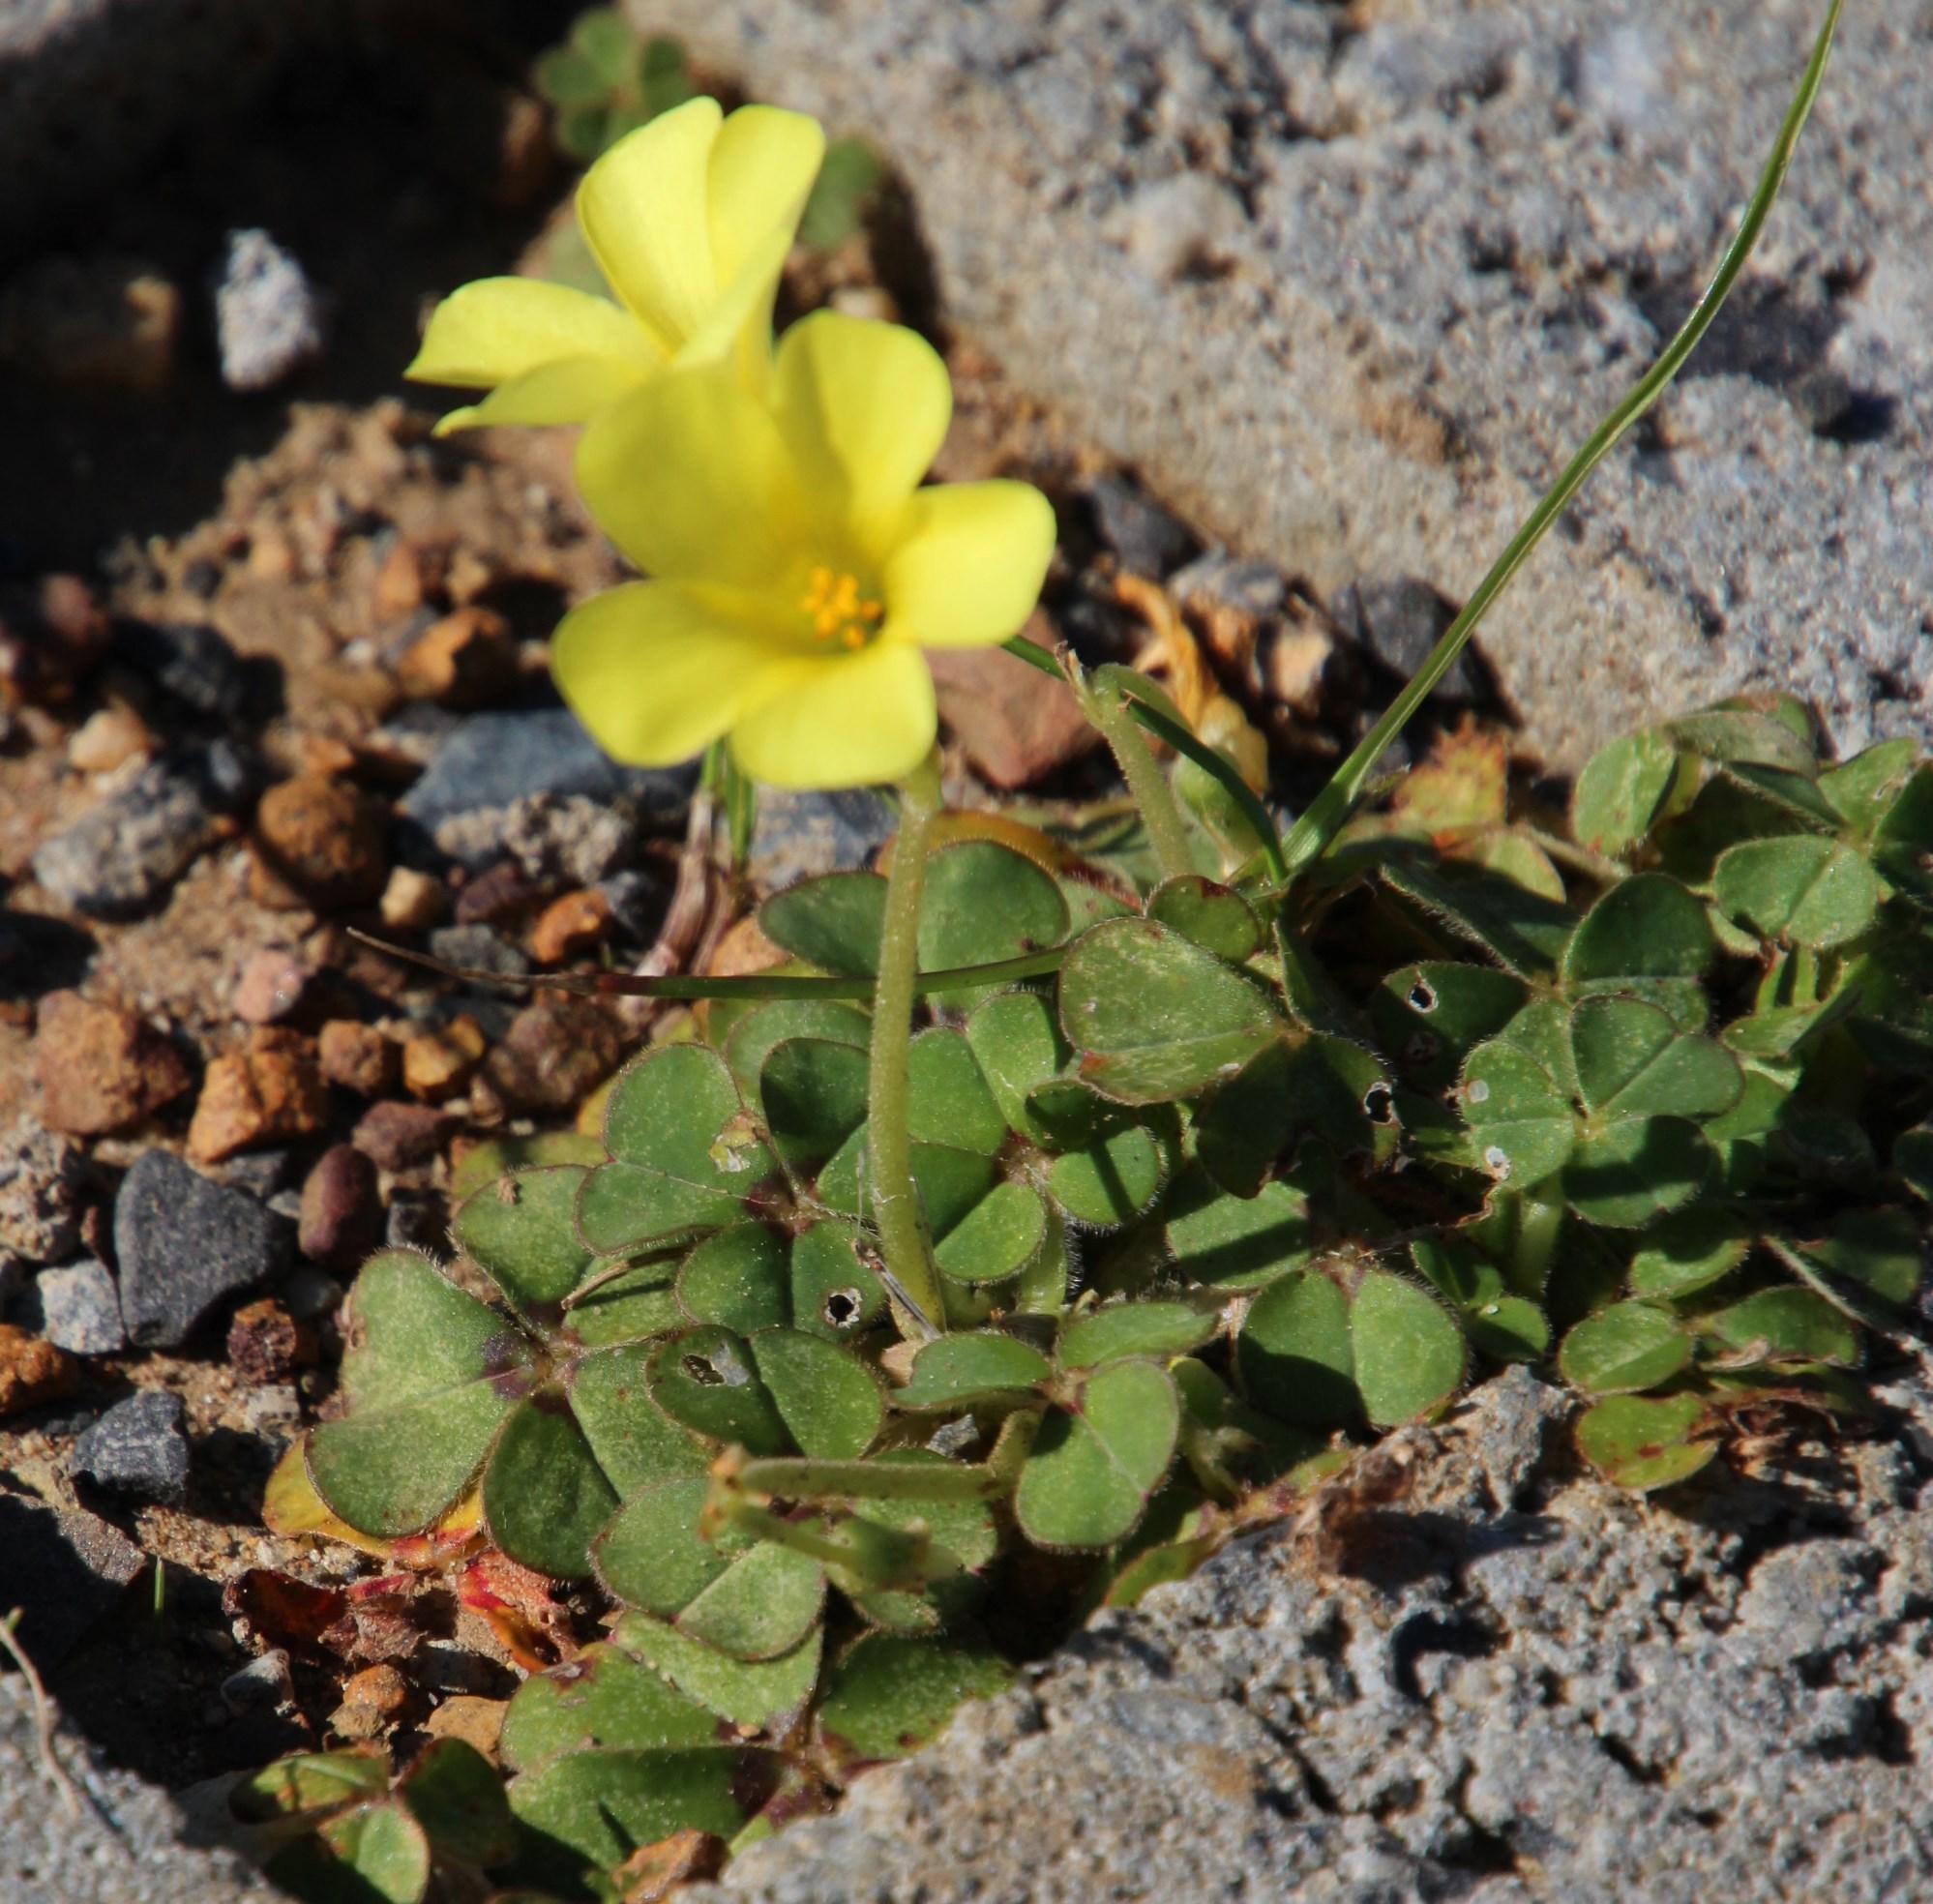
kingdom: Plantae
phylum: Tracheophyta
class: Magnoliopsida
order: Oxalidales
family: Oxalidaceae
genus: Oxalis
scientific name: Oxalis compressa
